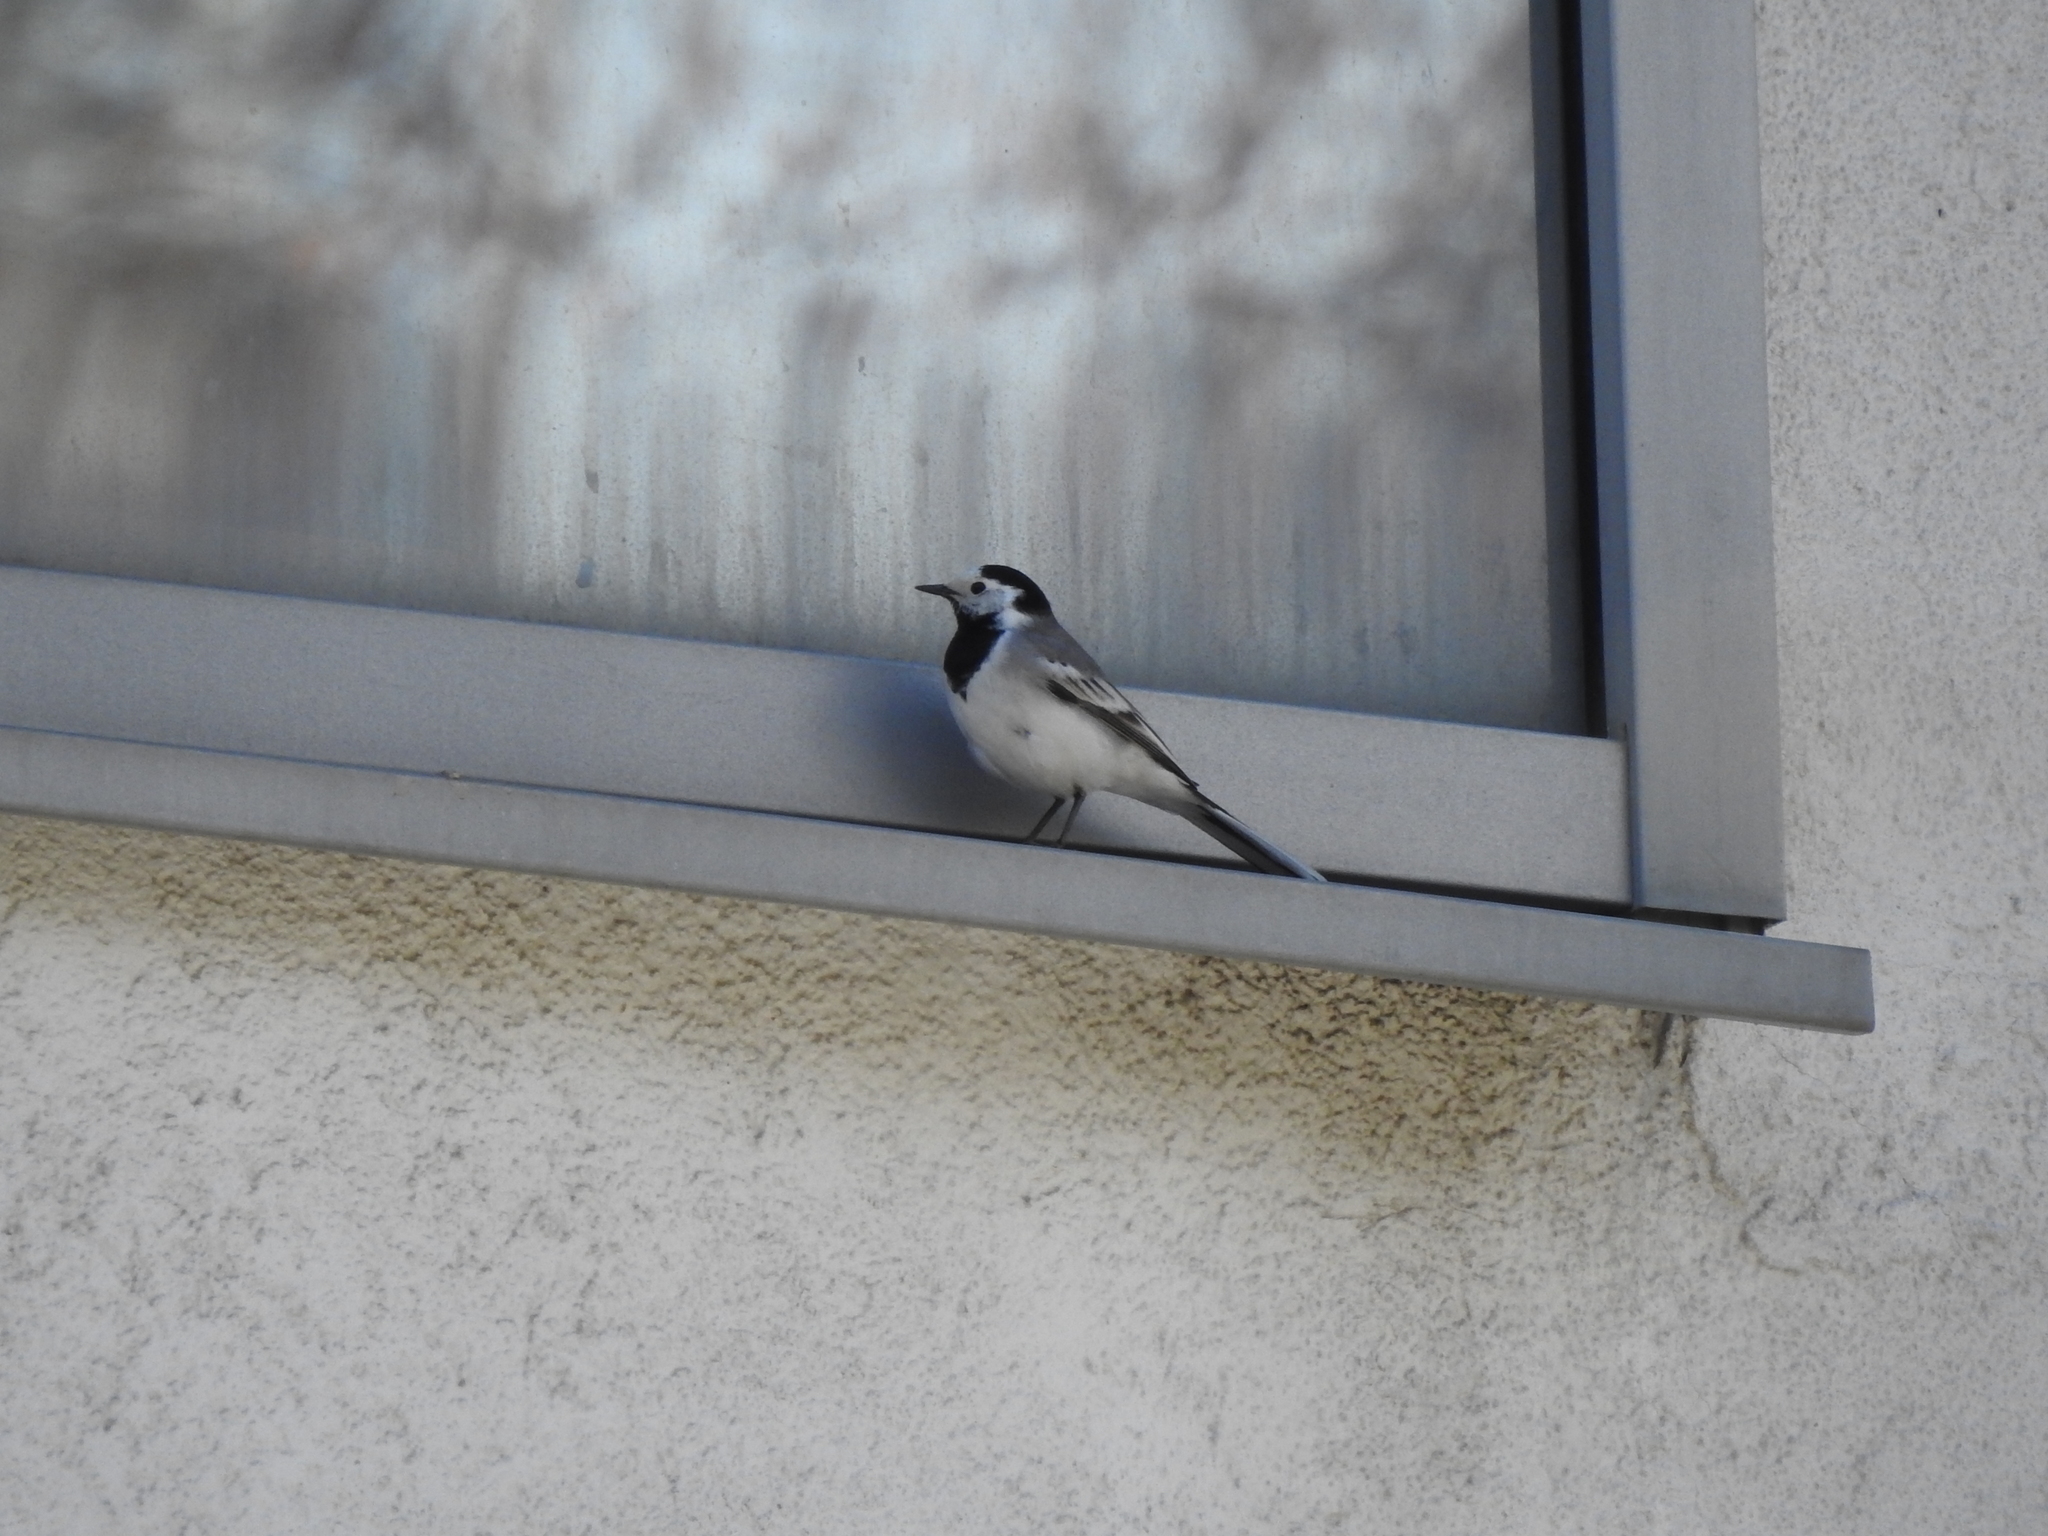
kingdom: Animalia
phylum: Chordata
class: Aves
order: Passeriformes
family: Motacillidae
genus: Motacilla
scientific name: Motacilla alba
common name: White wagtail
